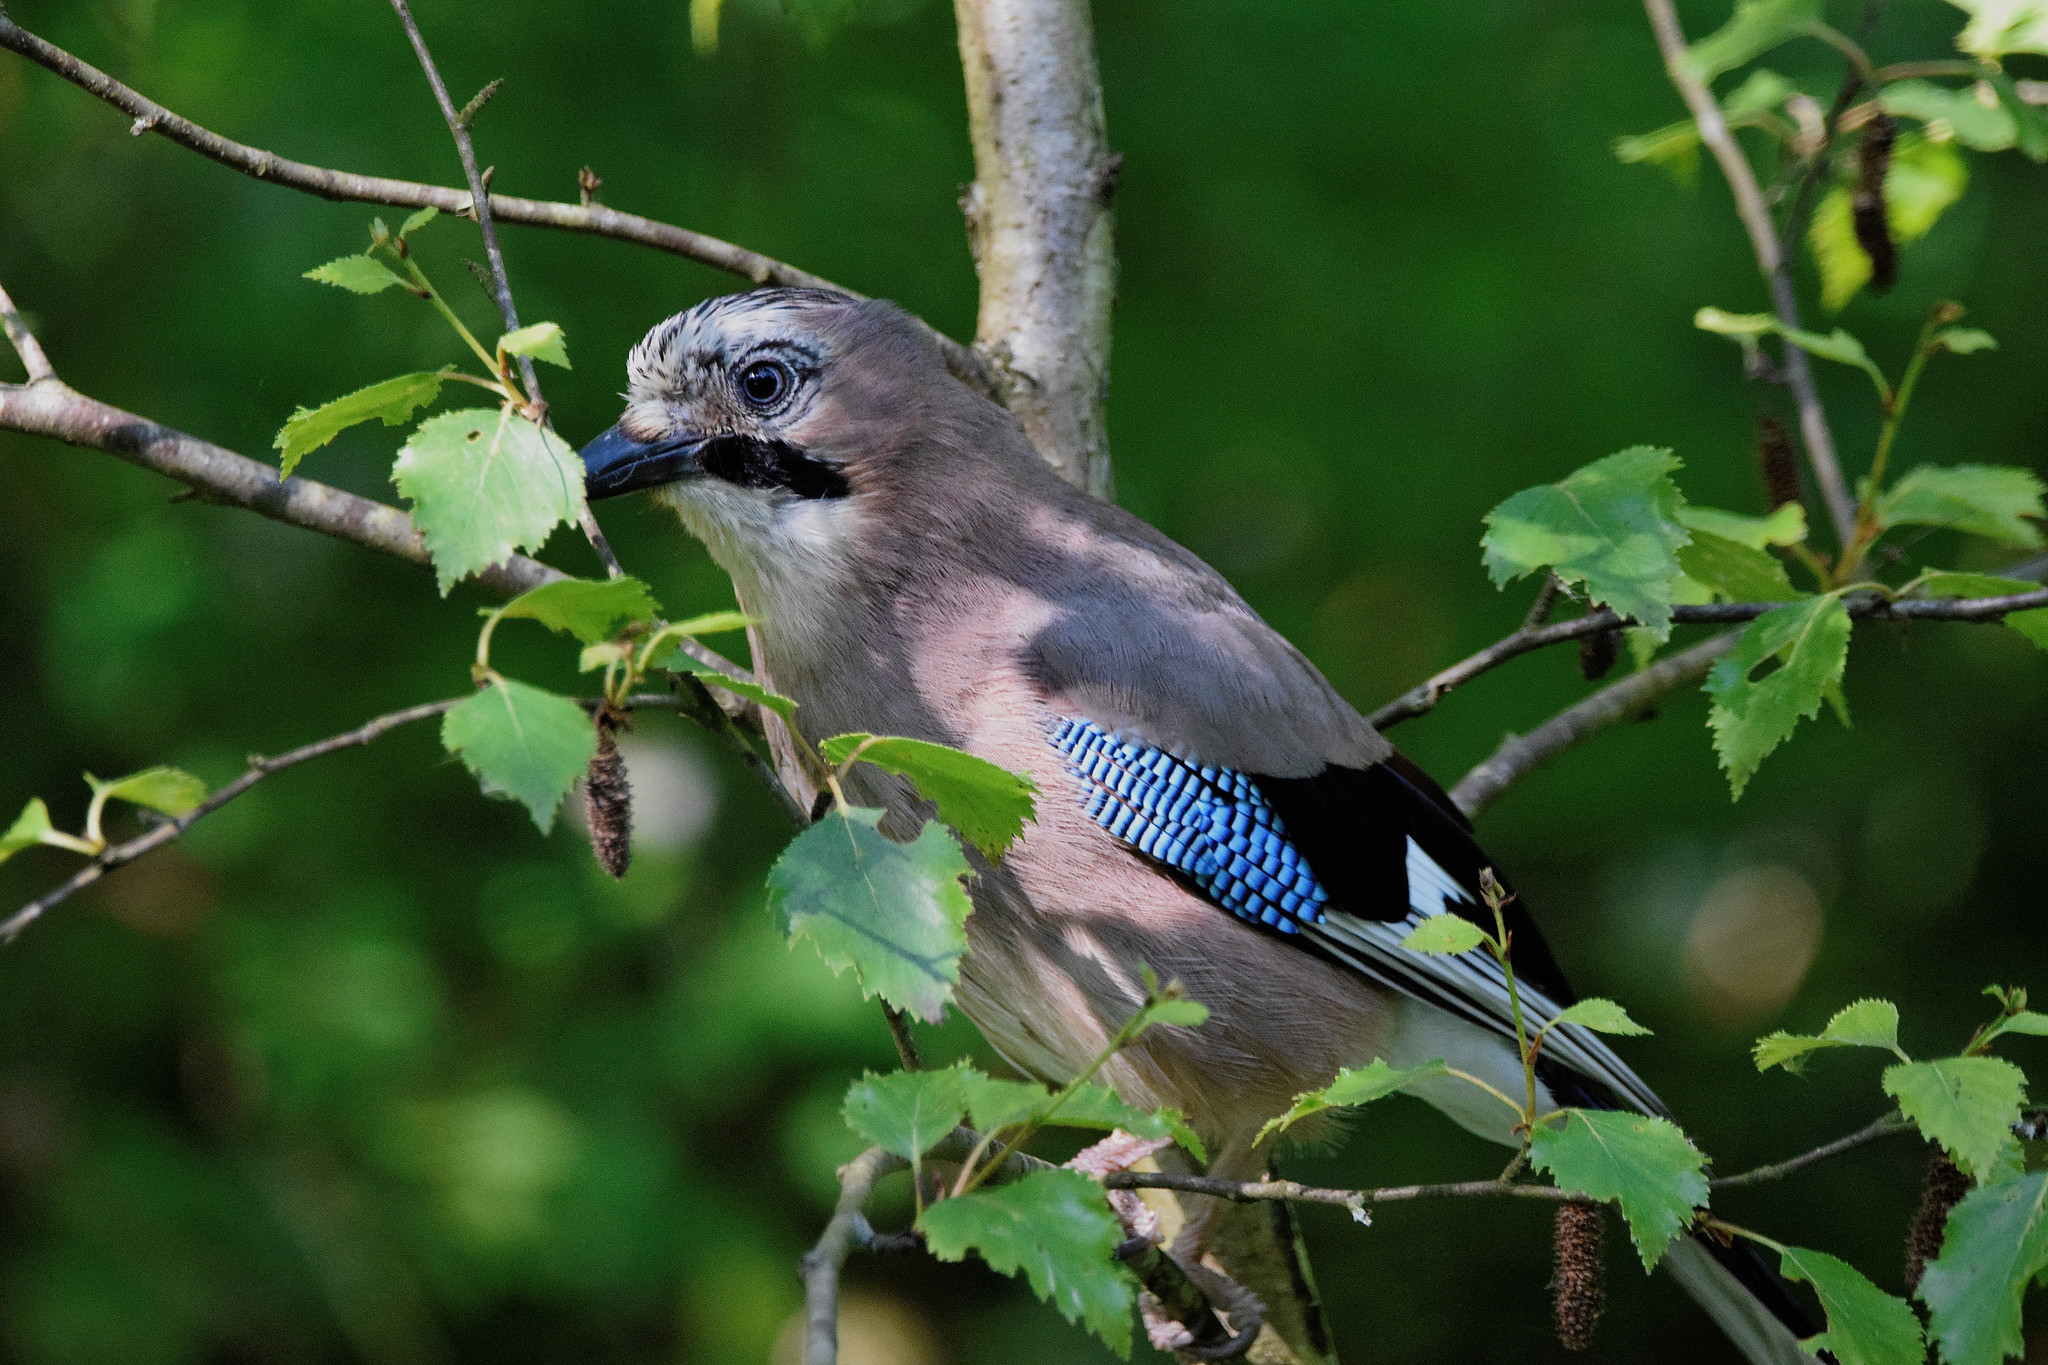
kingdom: Animalia
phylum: Chordata
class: Aves
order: Passeriformes
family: Corvidae
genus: Garrulus
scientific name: Garrulus glandarius
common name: Eurasian jay
